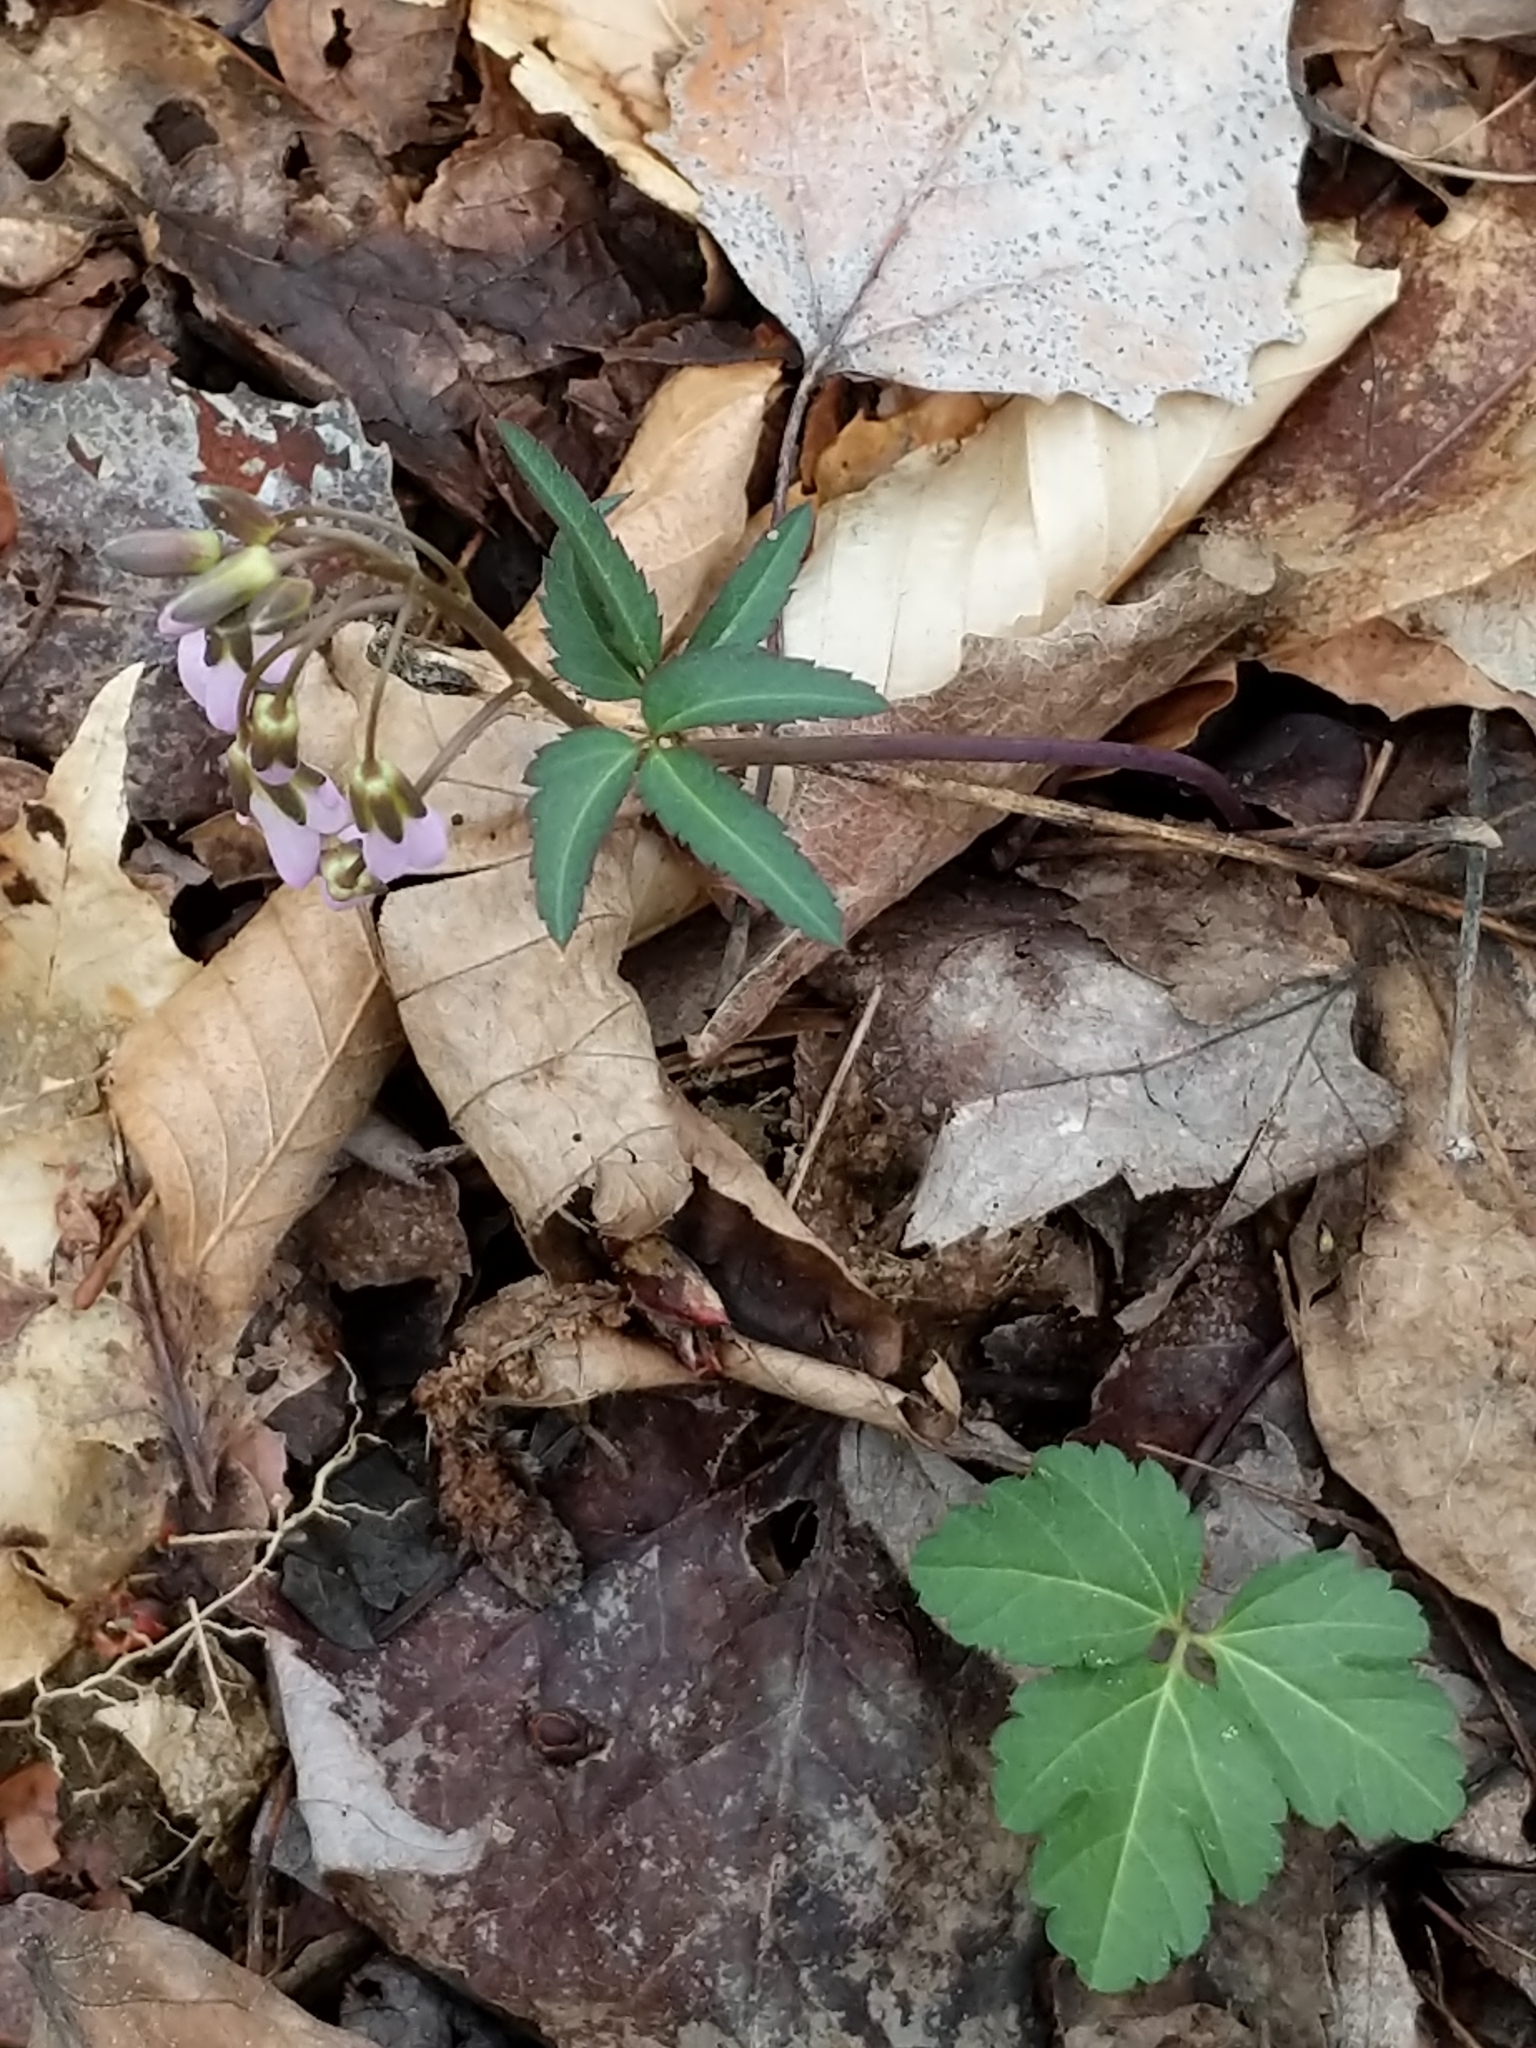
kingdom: Plantae
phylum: Tracheophyta
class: Magnoliopsida
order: Brassicales
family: Brassicaceae
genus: Cardamine
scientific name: Cardamine angustata
